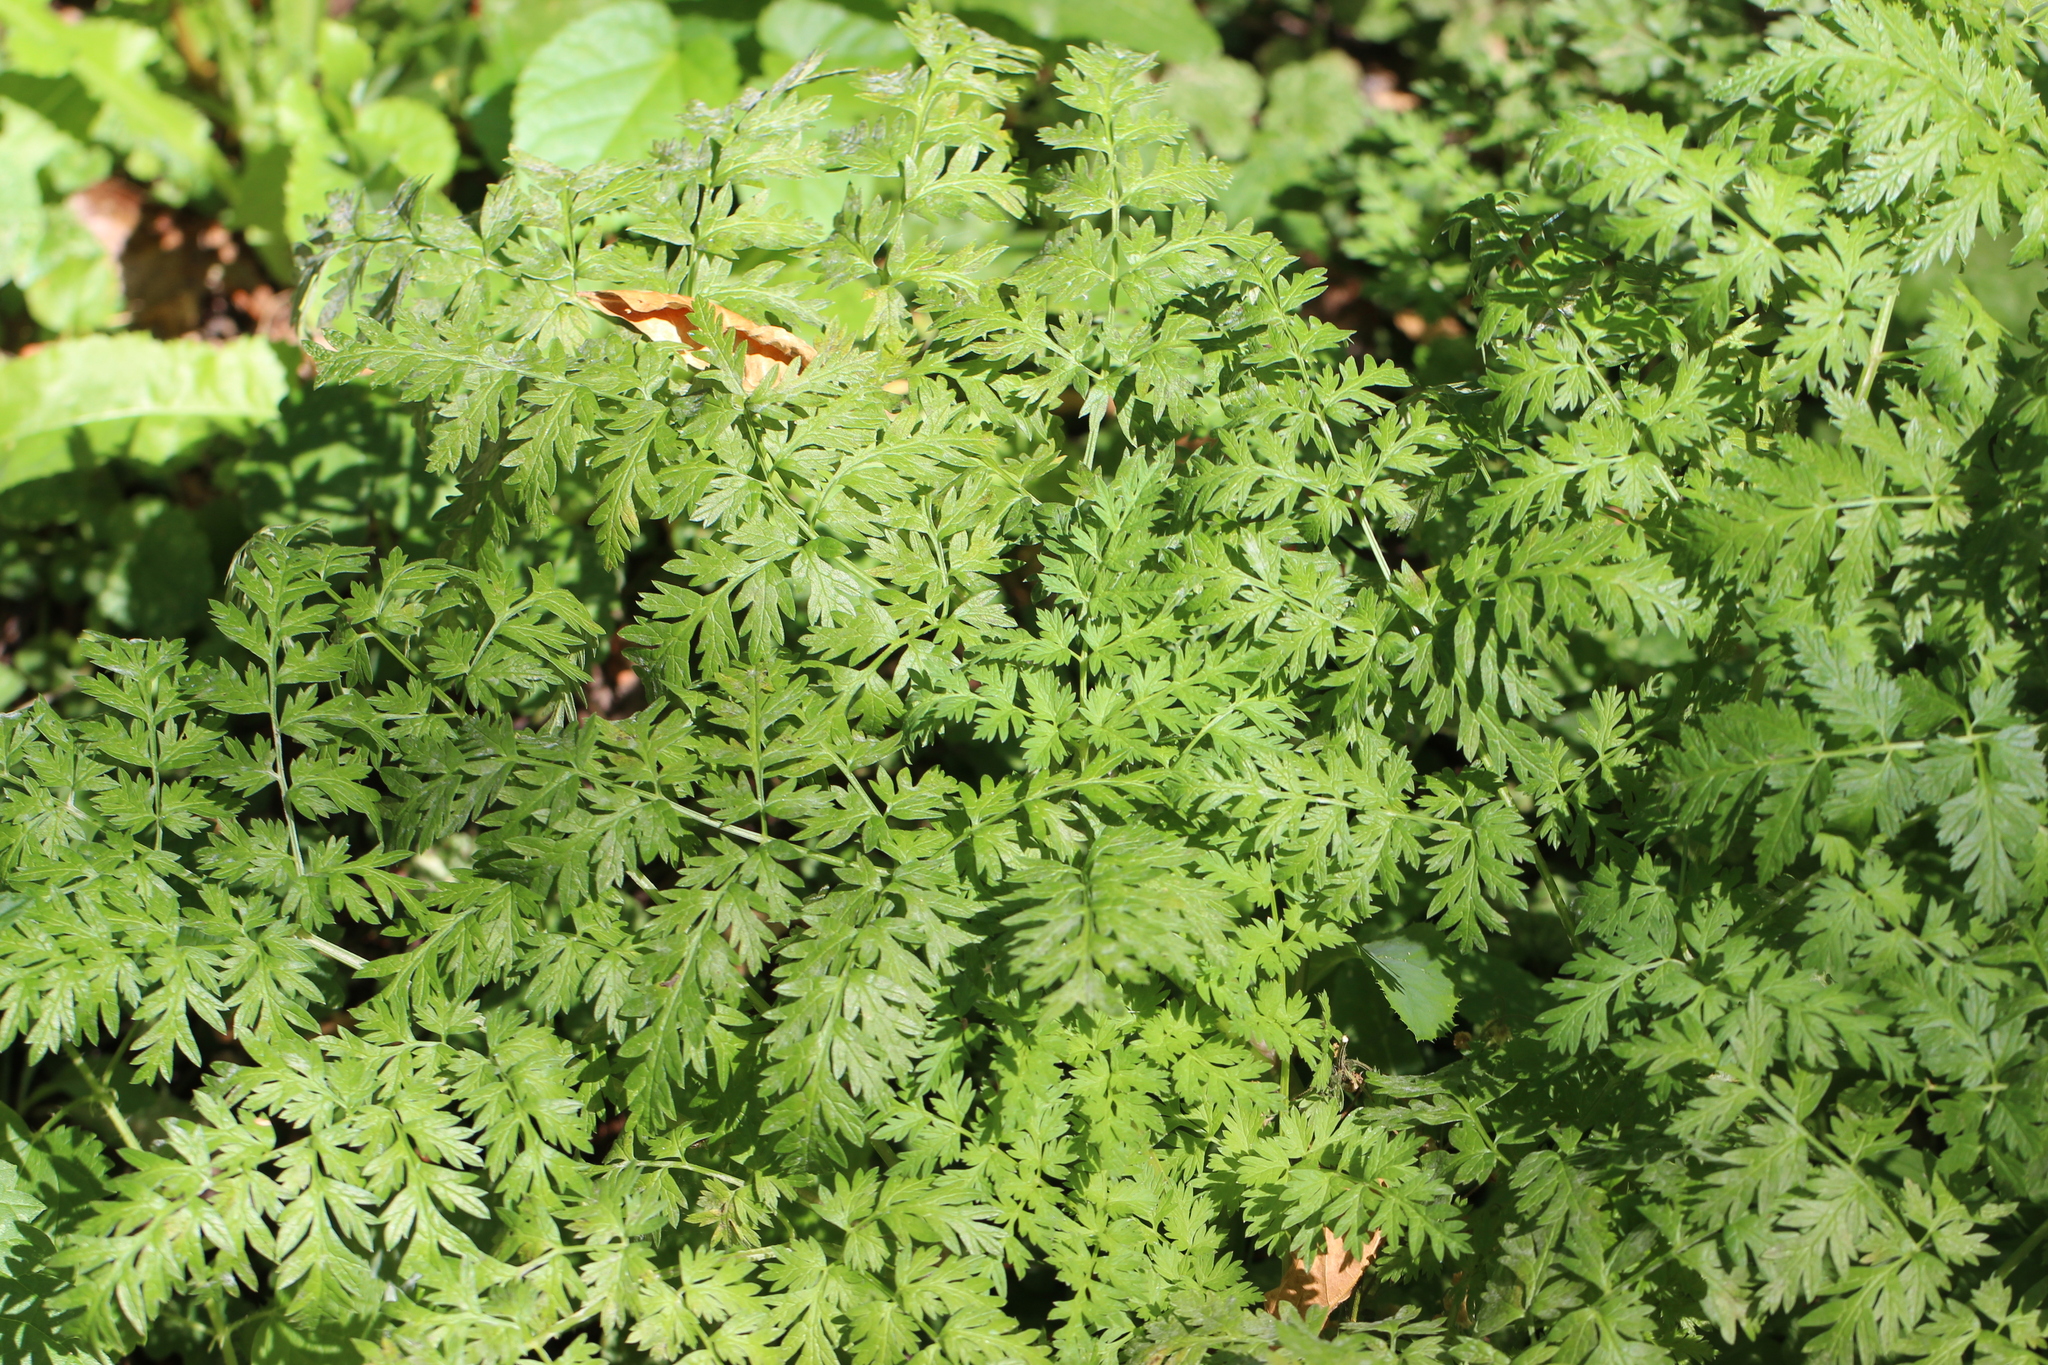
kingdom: Plantae
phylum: Tracheophyta
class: Magnoliopsida
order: Apiales
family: Apiaceae
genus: Anthriscus
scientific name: Anthriscus sylvestris
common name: Cow parsley
